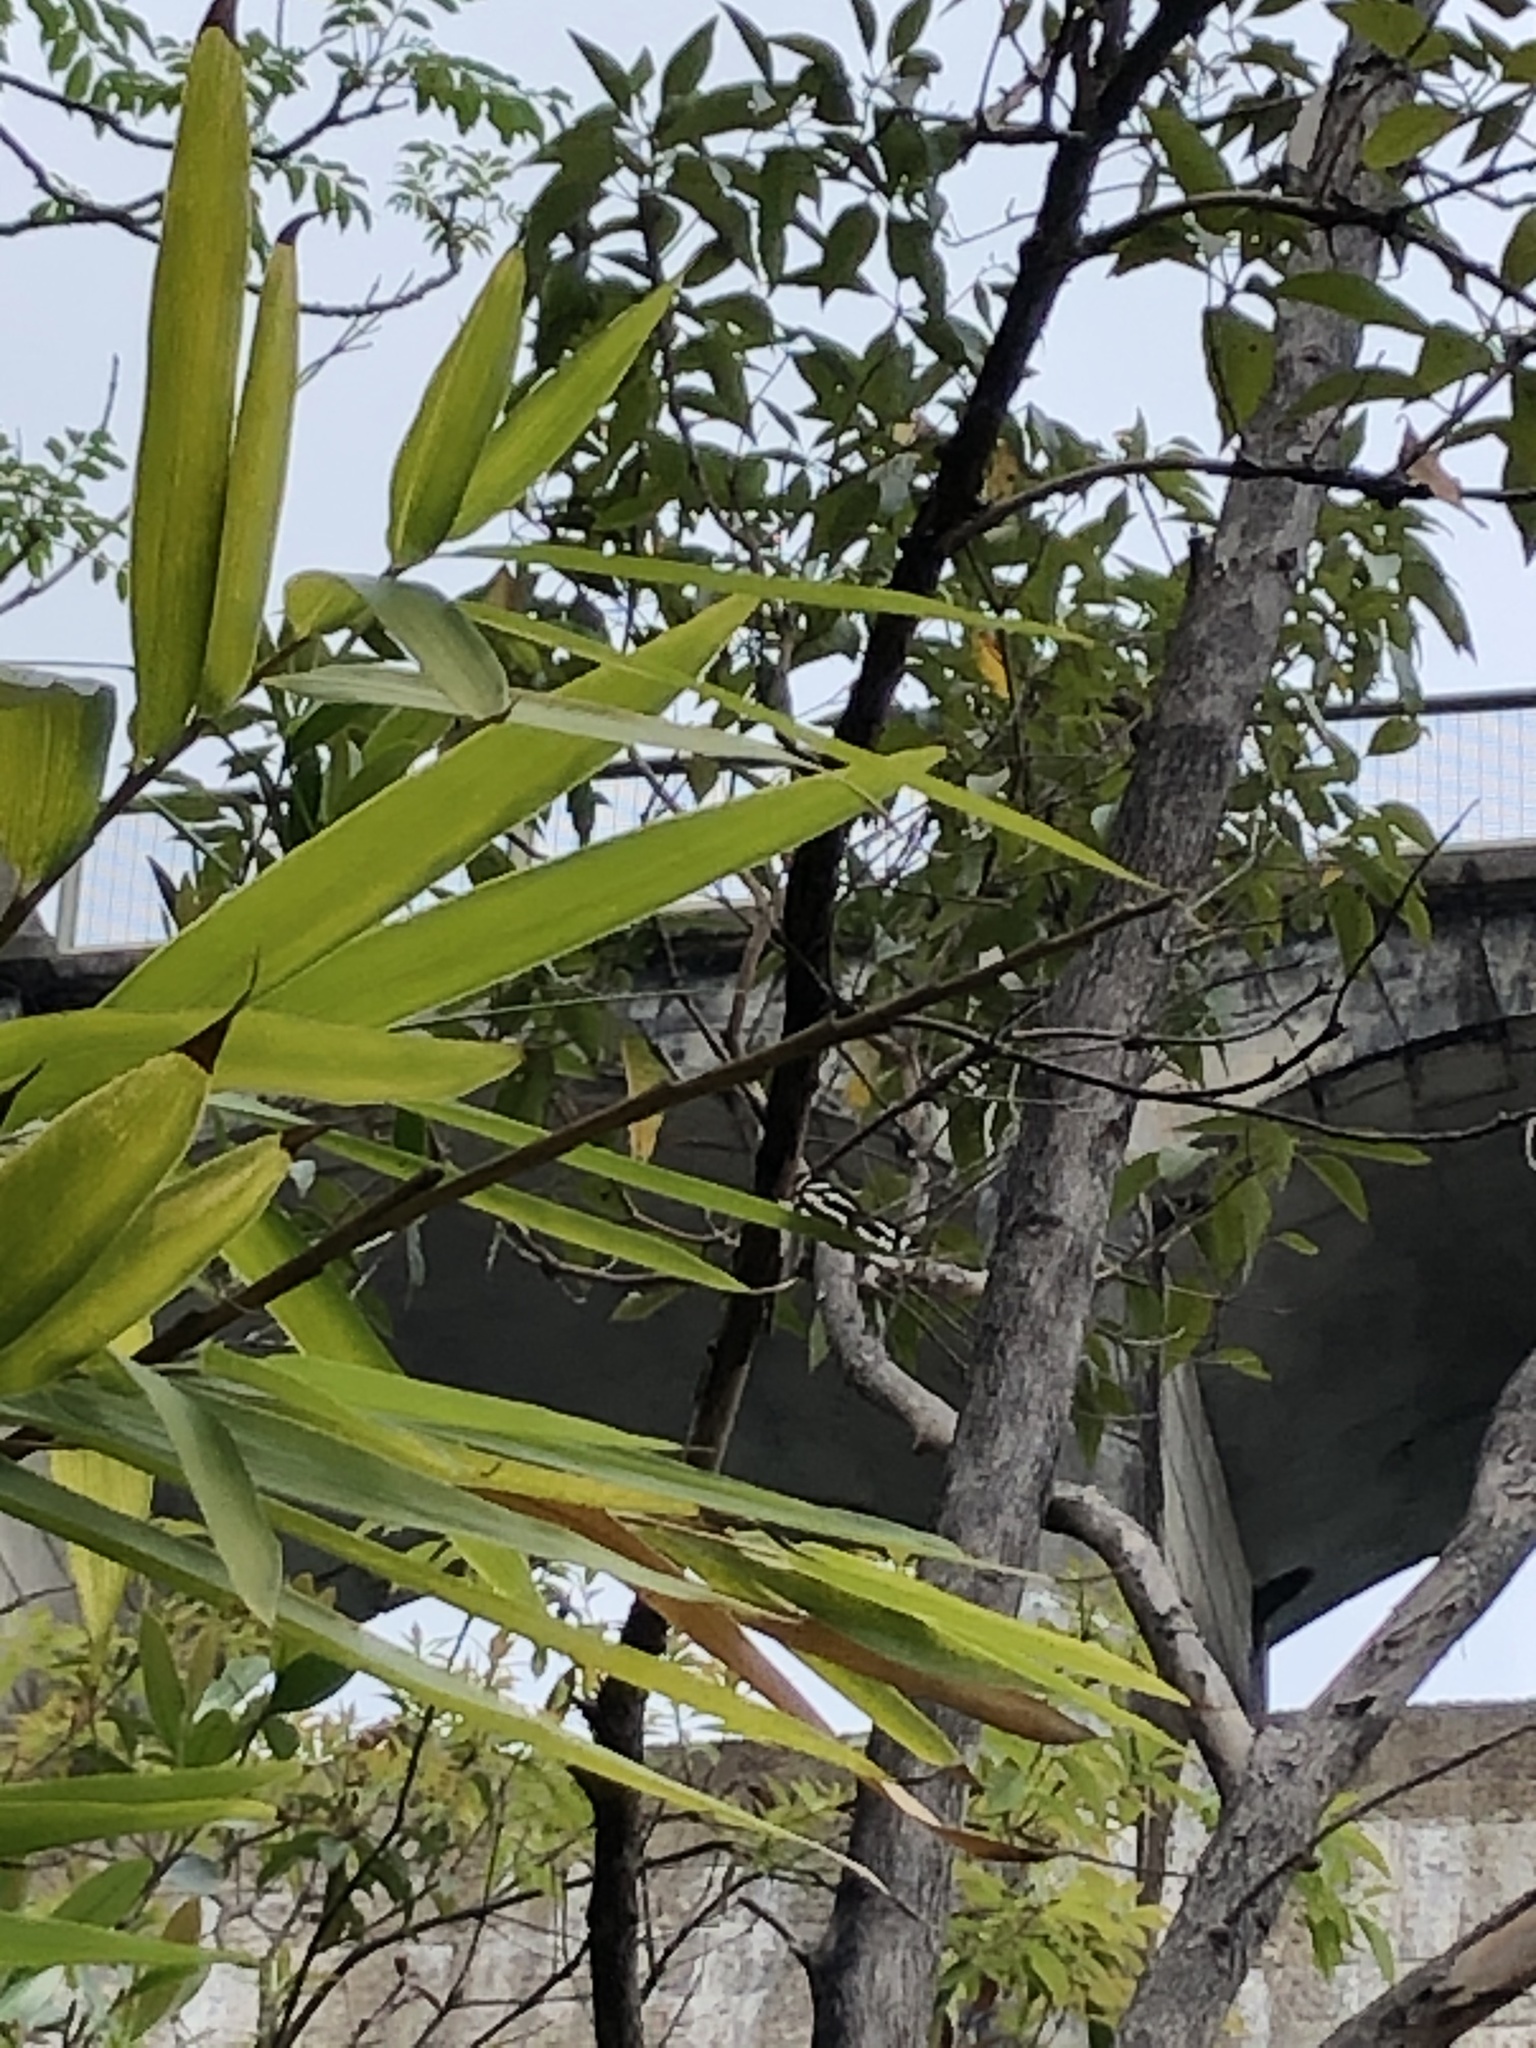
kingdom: Animalia
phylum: Arthropoda
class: Insecta
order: Lepidoptera
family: Nymphalidae
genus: Neptis
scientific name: Neptis hylas
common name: Common sailer
